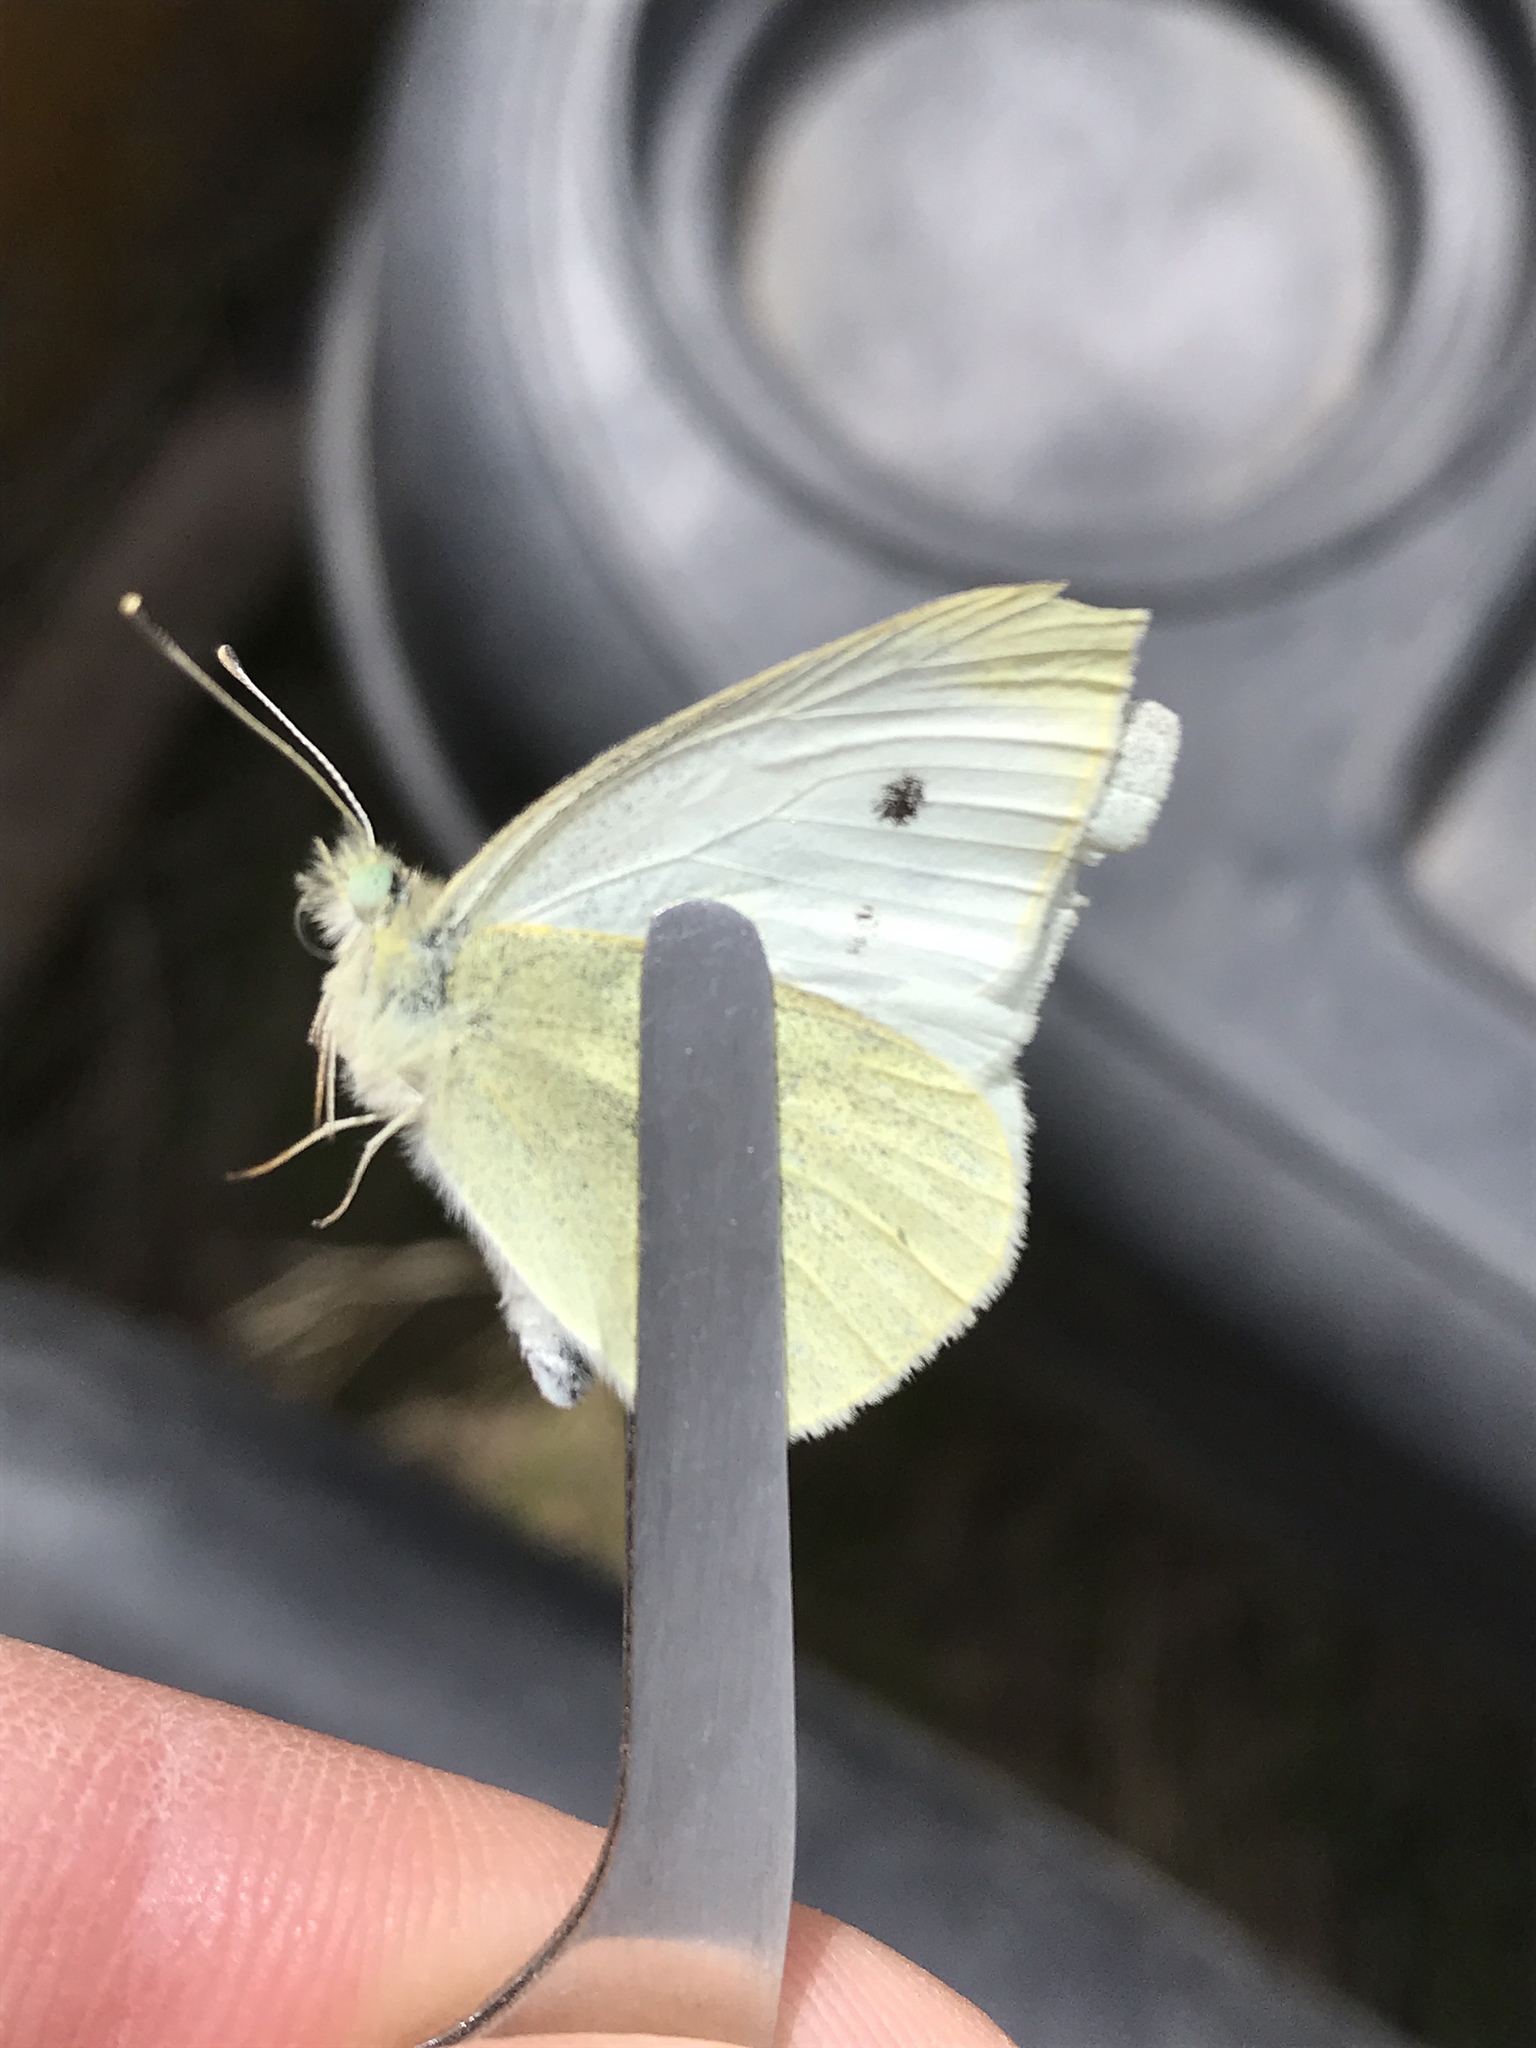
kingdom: Animalia
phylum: Arthropoda
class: Insecta
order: Lepidoptera
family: Pieridae
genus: Pieris
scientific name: Pieris rapae
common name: Small white
